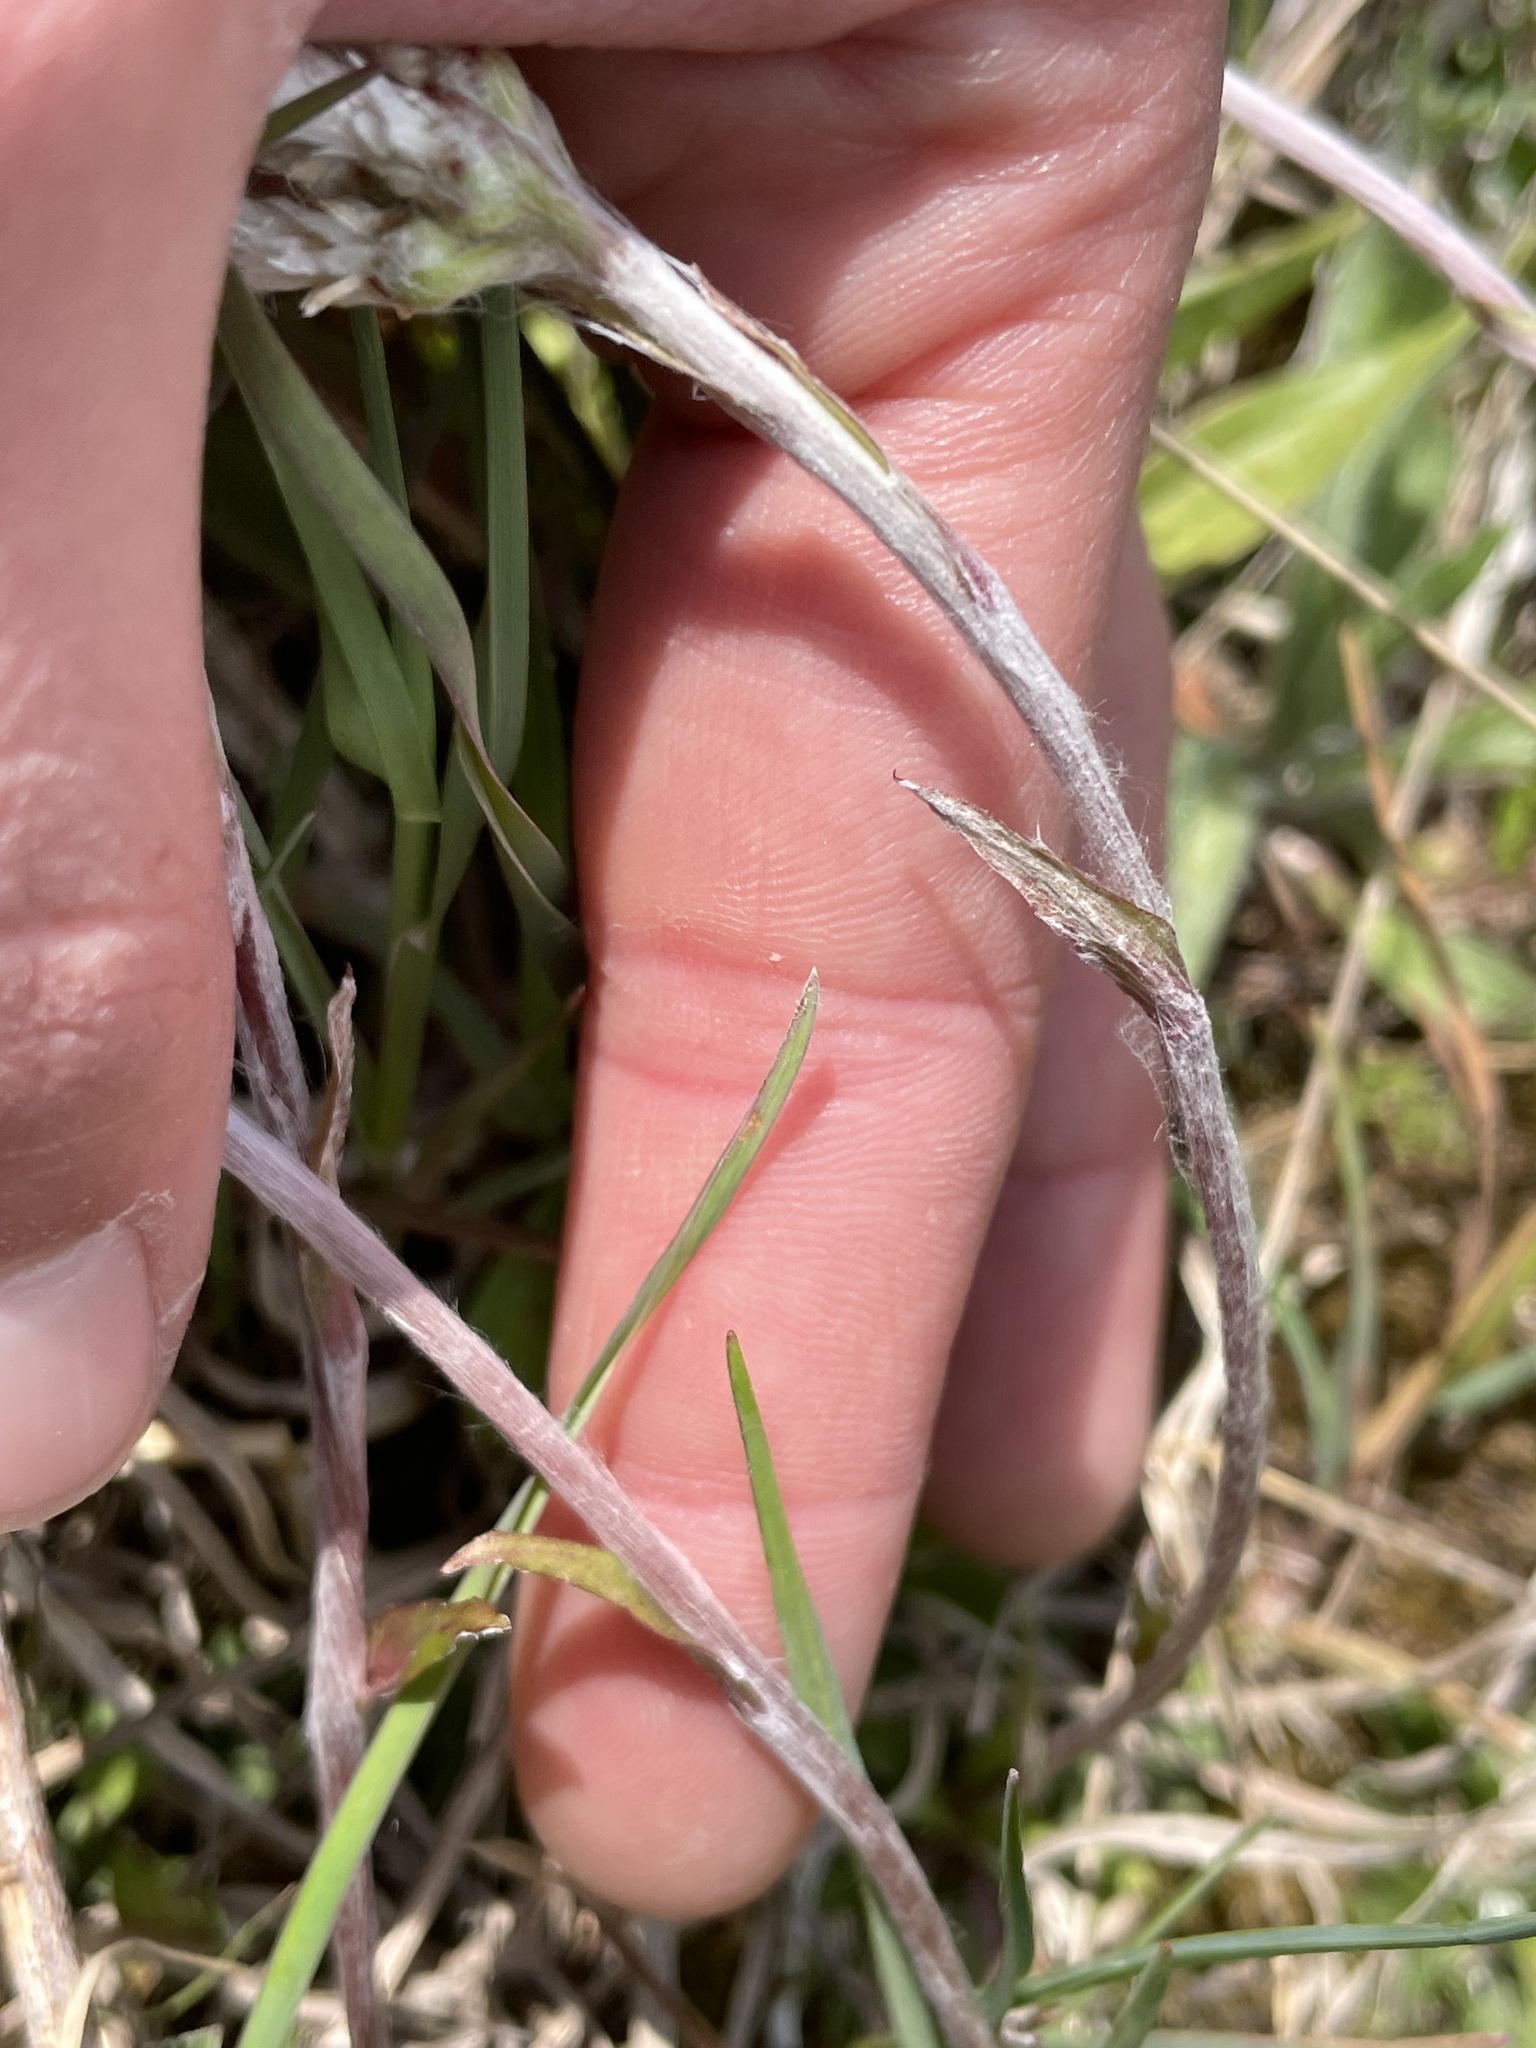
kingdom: Plantae
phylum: Tracheophyta
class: Magnoliopsida
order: Asterales
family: Asteraceae
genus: Antennaria
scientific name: Antennaria howellii
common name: Howell's pussytoes
